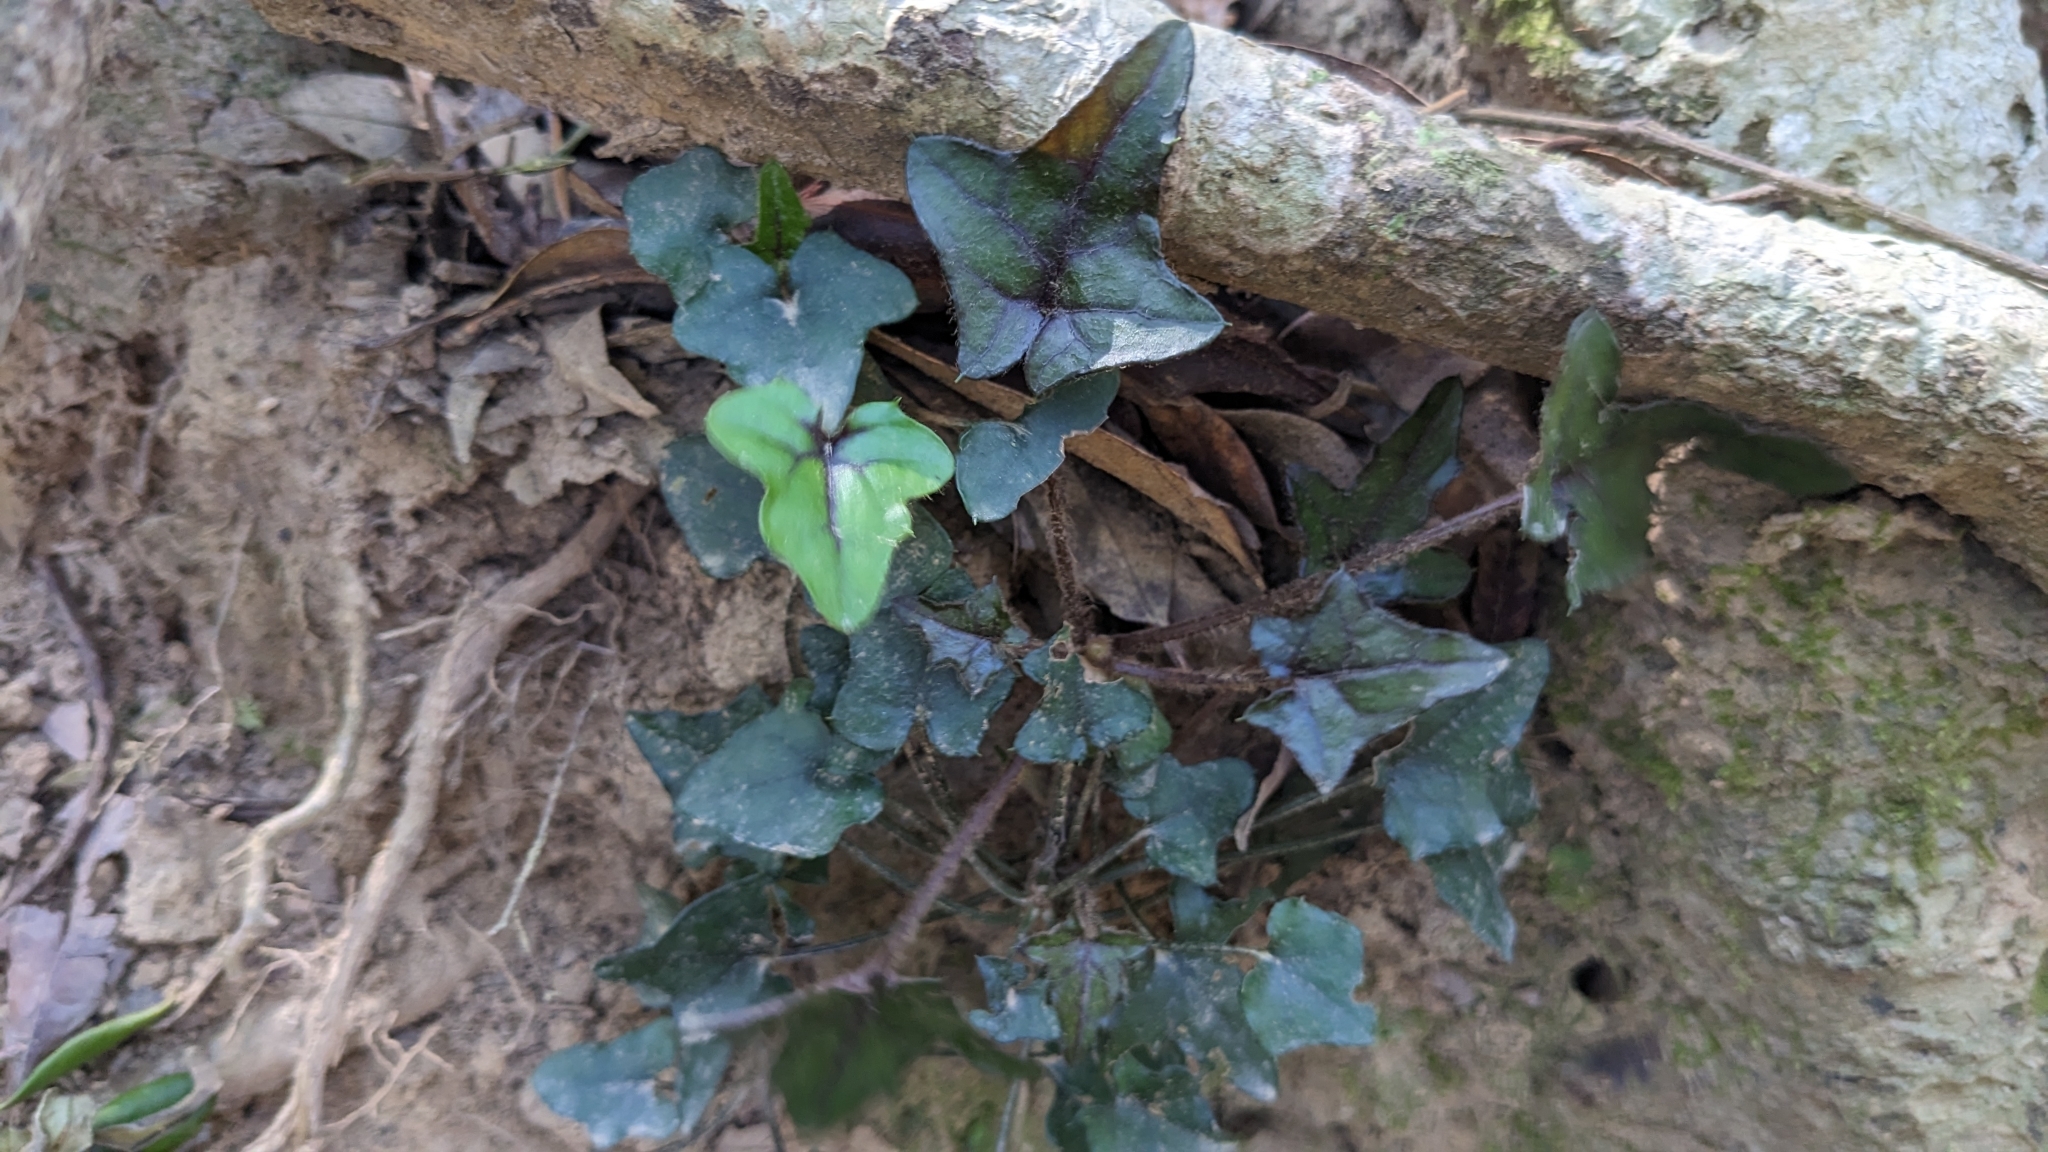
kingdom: Plantae
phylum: Tracheophyta
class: Magnoliopsida
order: Asterales
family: Asteraceae
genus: Ainsliaea
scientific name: Ainsliaea apiculata
